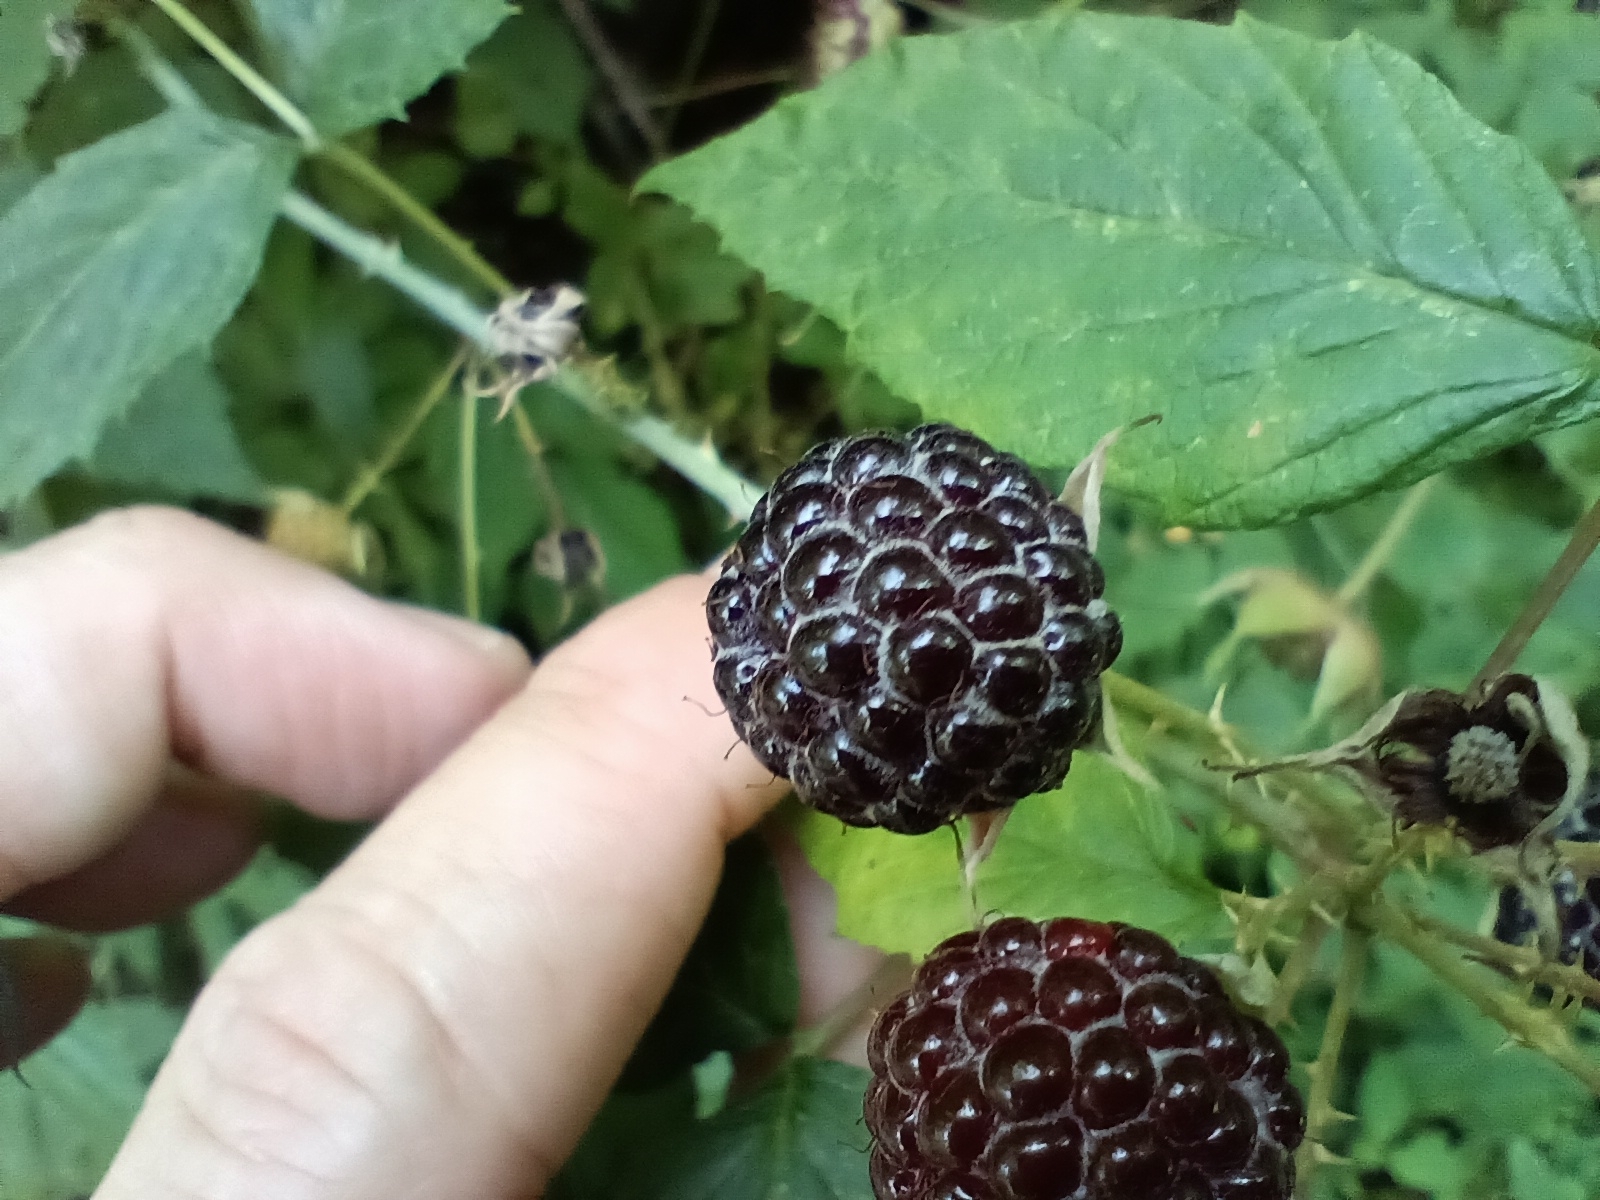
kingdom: Plantae
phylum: Tracheophyta
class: Magnoliopsida
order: Rosales
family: Rosaceae
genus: Rubus
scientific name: Rubus occidentalis
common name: Black raspberry
